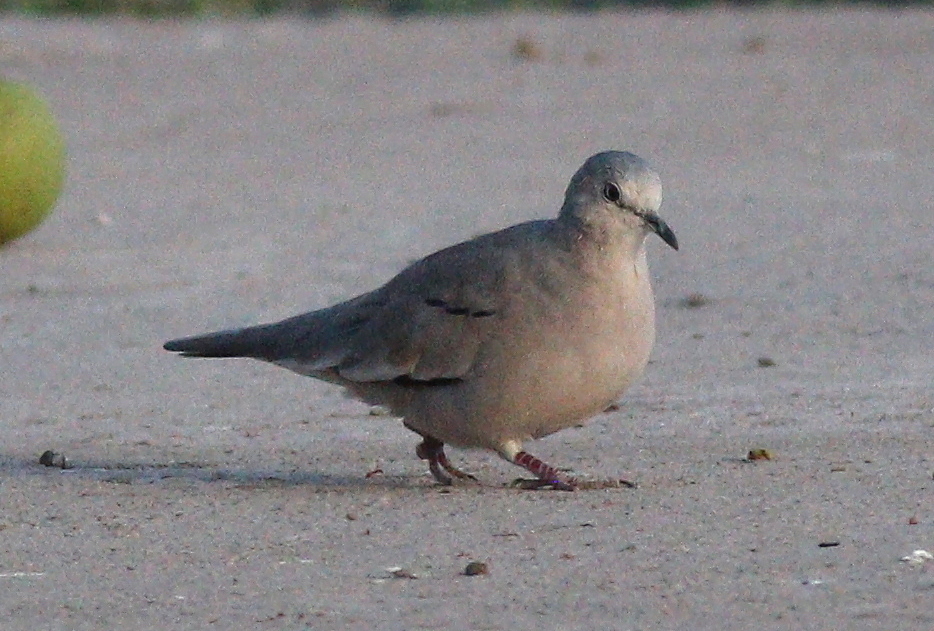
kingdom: Animalia
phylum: Chordata
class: Aves
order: Columbiformes
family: Columbidae
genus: Columbina
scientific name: Columbina picui
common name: Picui ground dove
